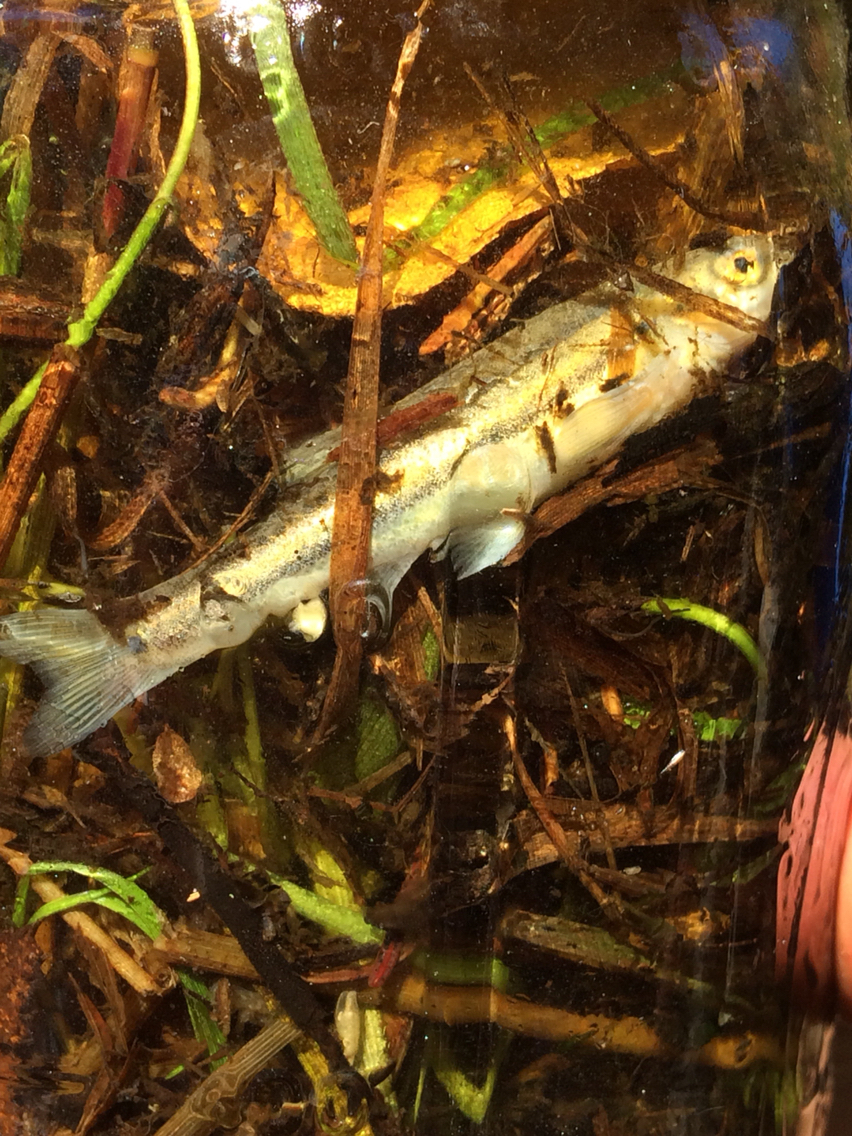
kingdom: Animalia
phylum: Chordata
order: Cypriniformes
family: Cyprinidae
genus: Chrosomus
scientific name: Chrosomus eos
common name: Northern redbelly dace
